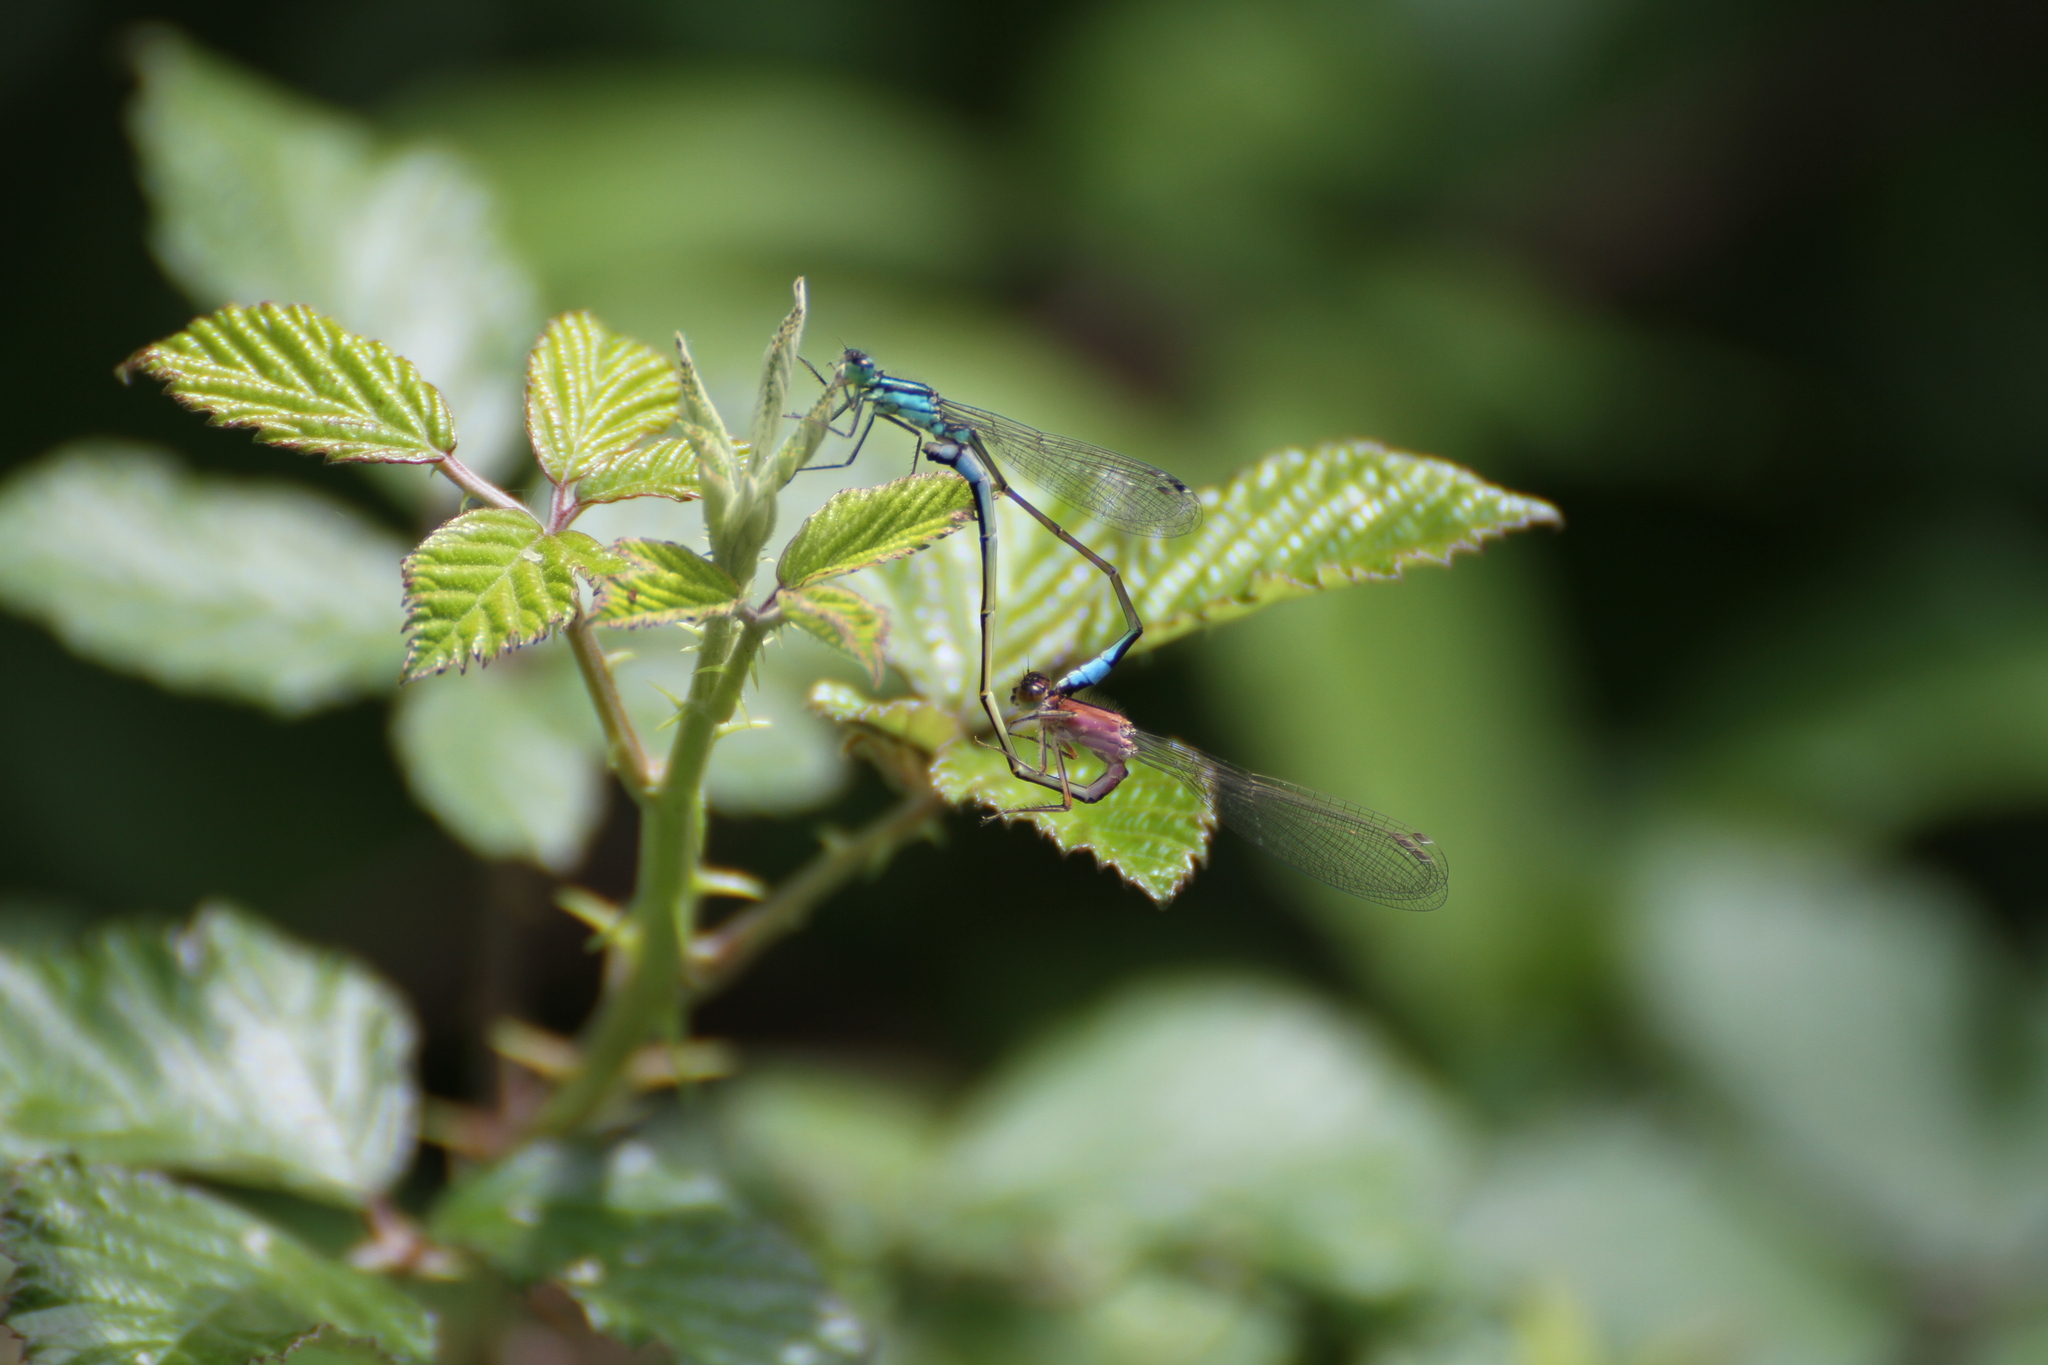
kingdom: Animalia
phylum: Arthropoda
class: Insecta
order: Odonata
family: Coenagrionidae
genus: Ischnura
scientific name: Ischnura elegans
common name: Blue-tailed damselfly
